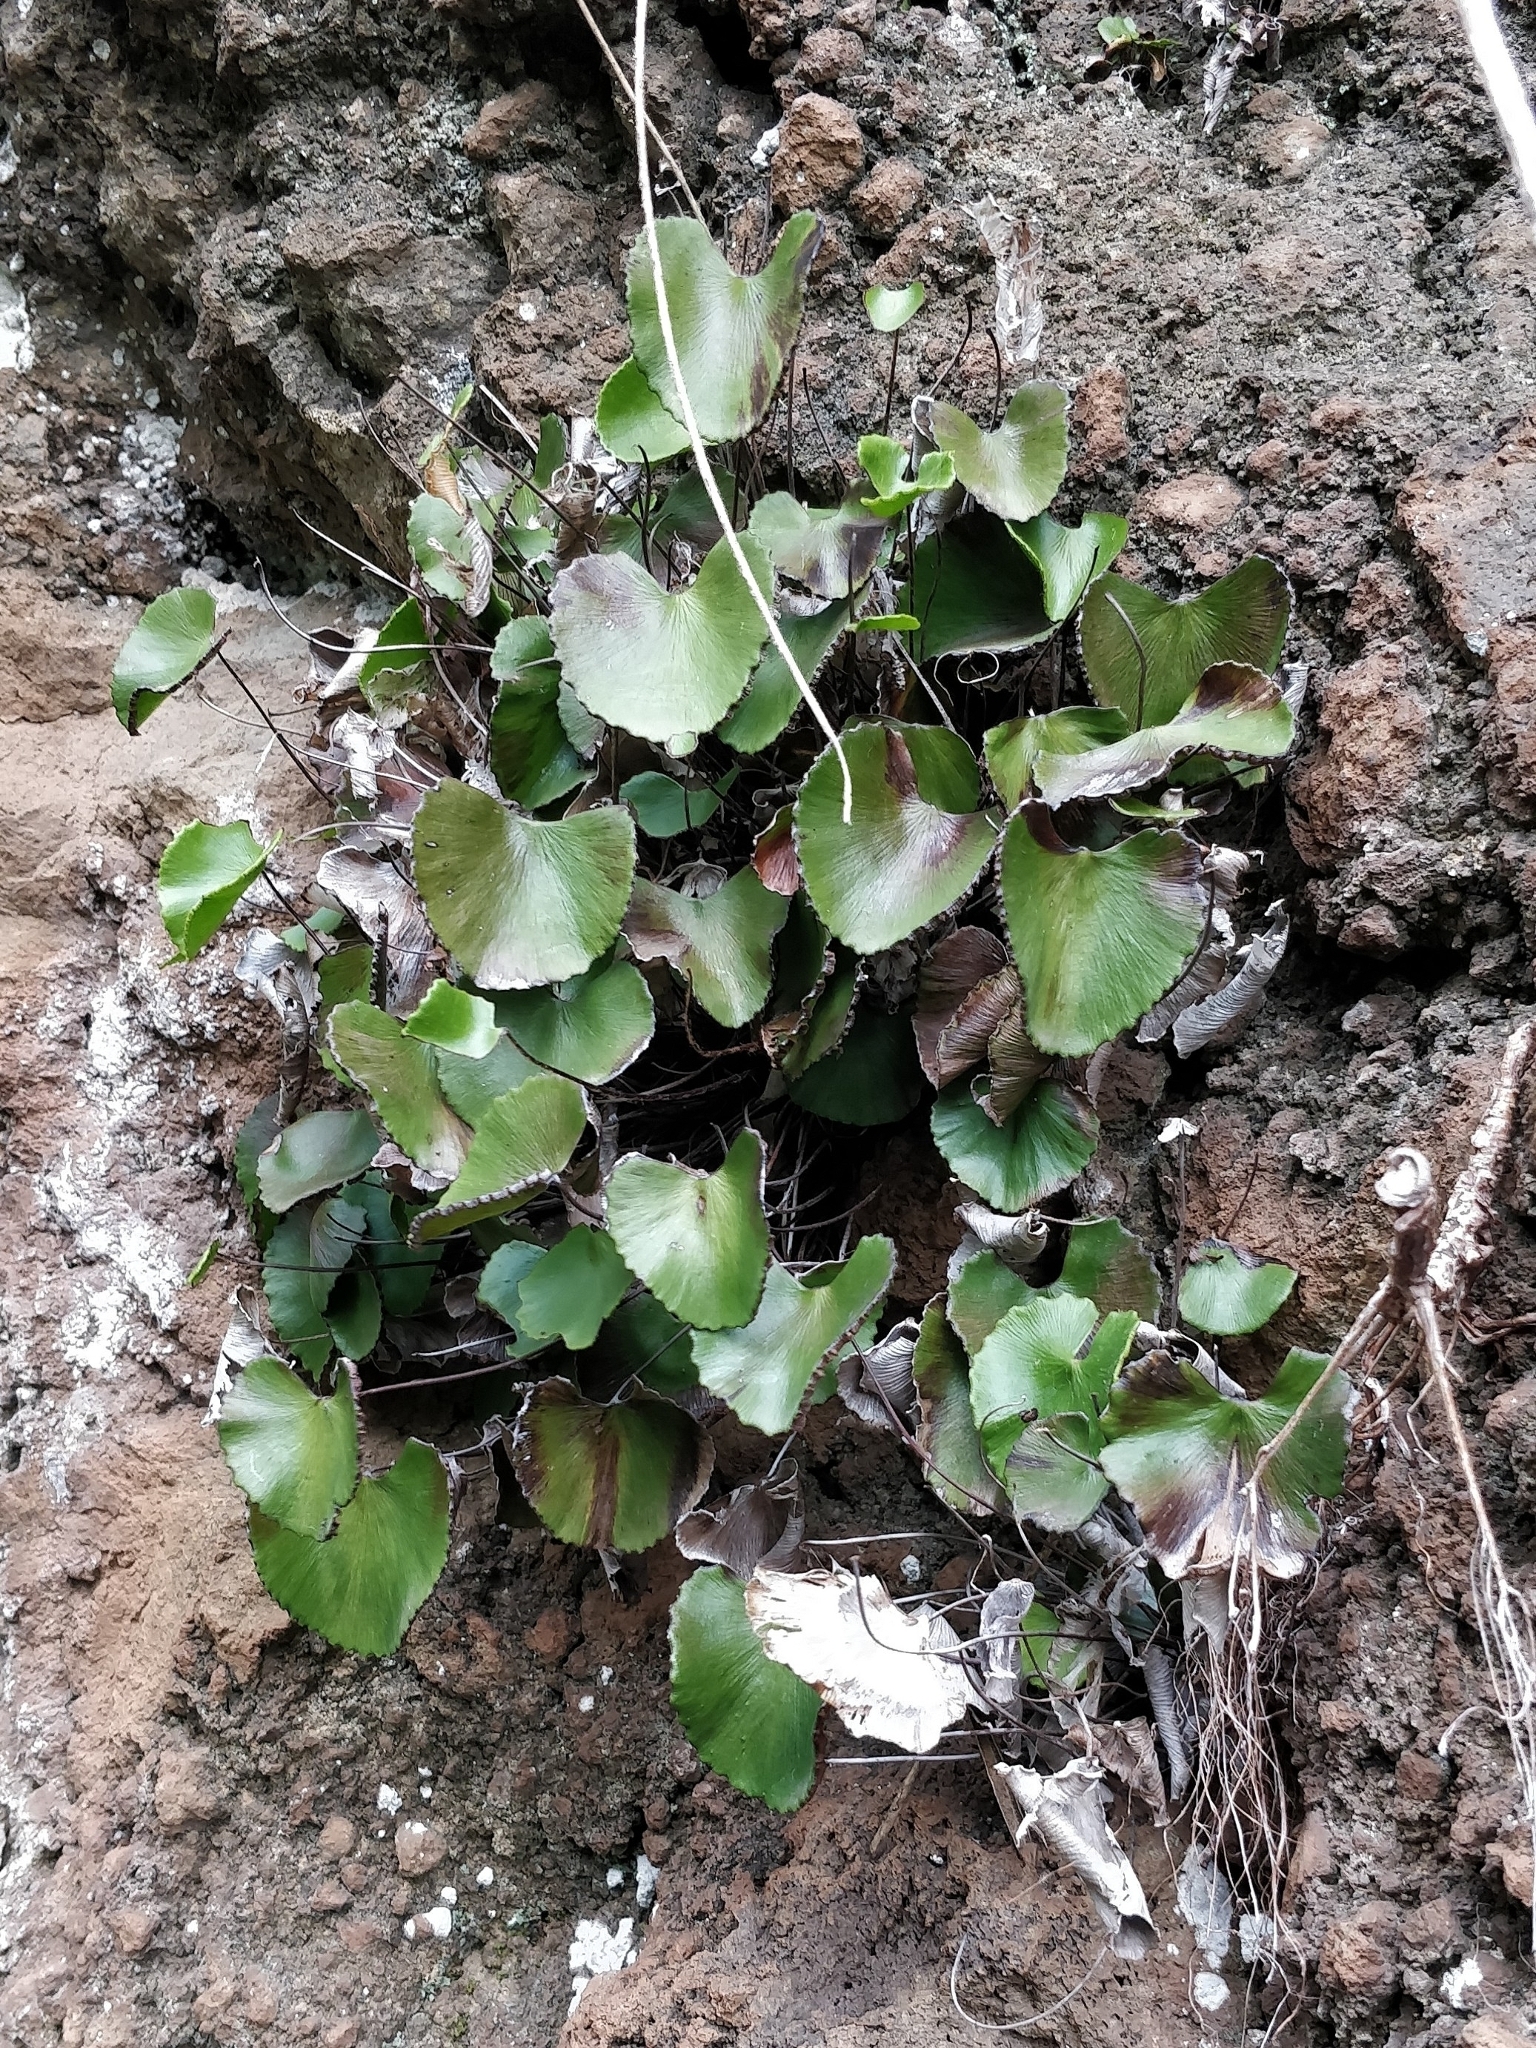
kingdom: Plantae
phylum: Tracheophyta
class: Polypodiopsida
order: Polypodiales
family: Pteridaceae
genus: Adiantum
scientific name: Adiantum reniforme
